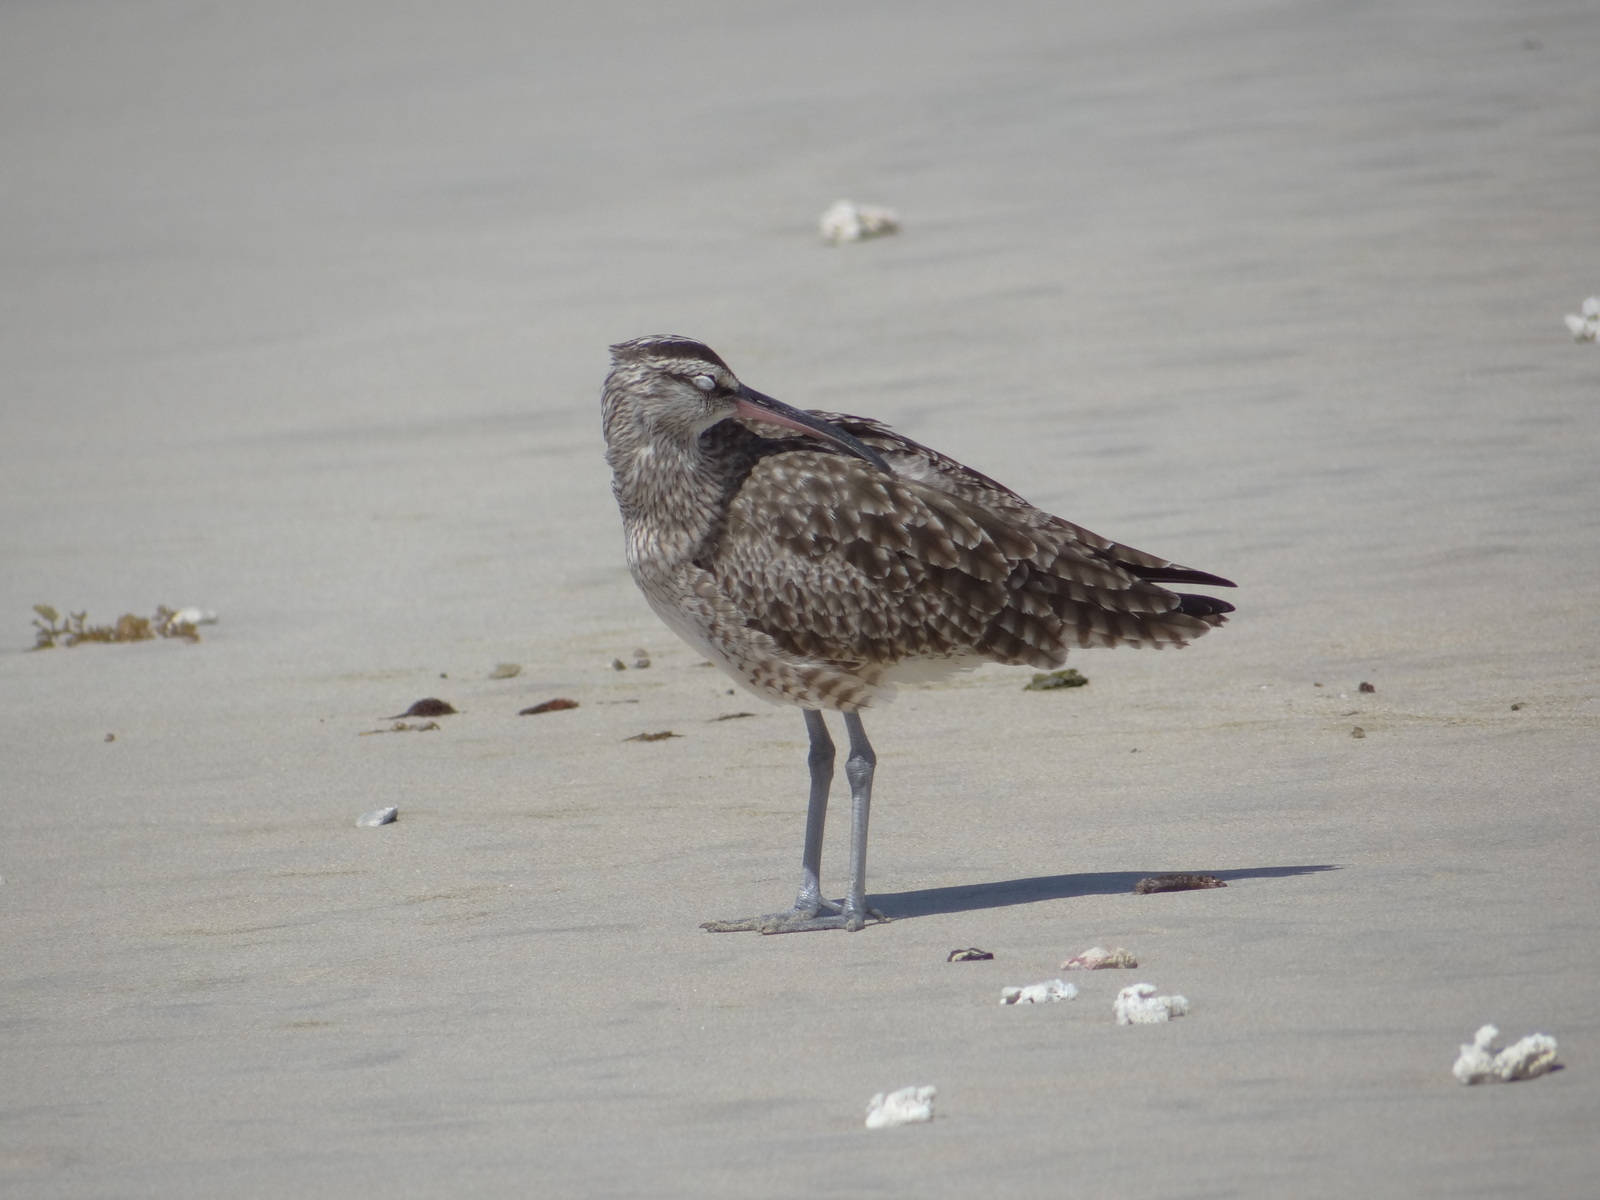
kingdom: Animalia
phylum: Chordata
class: Aves
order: Charadriiformes
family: Scolopacidae
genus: Numenius
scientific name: Numenius phaeopus
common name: Whimbrel
